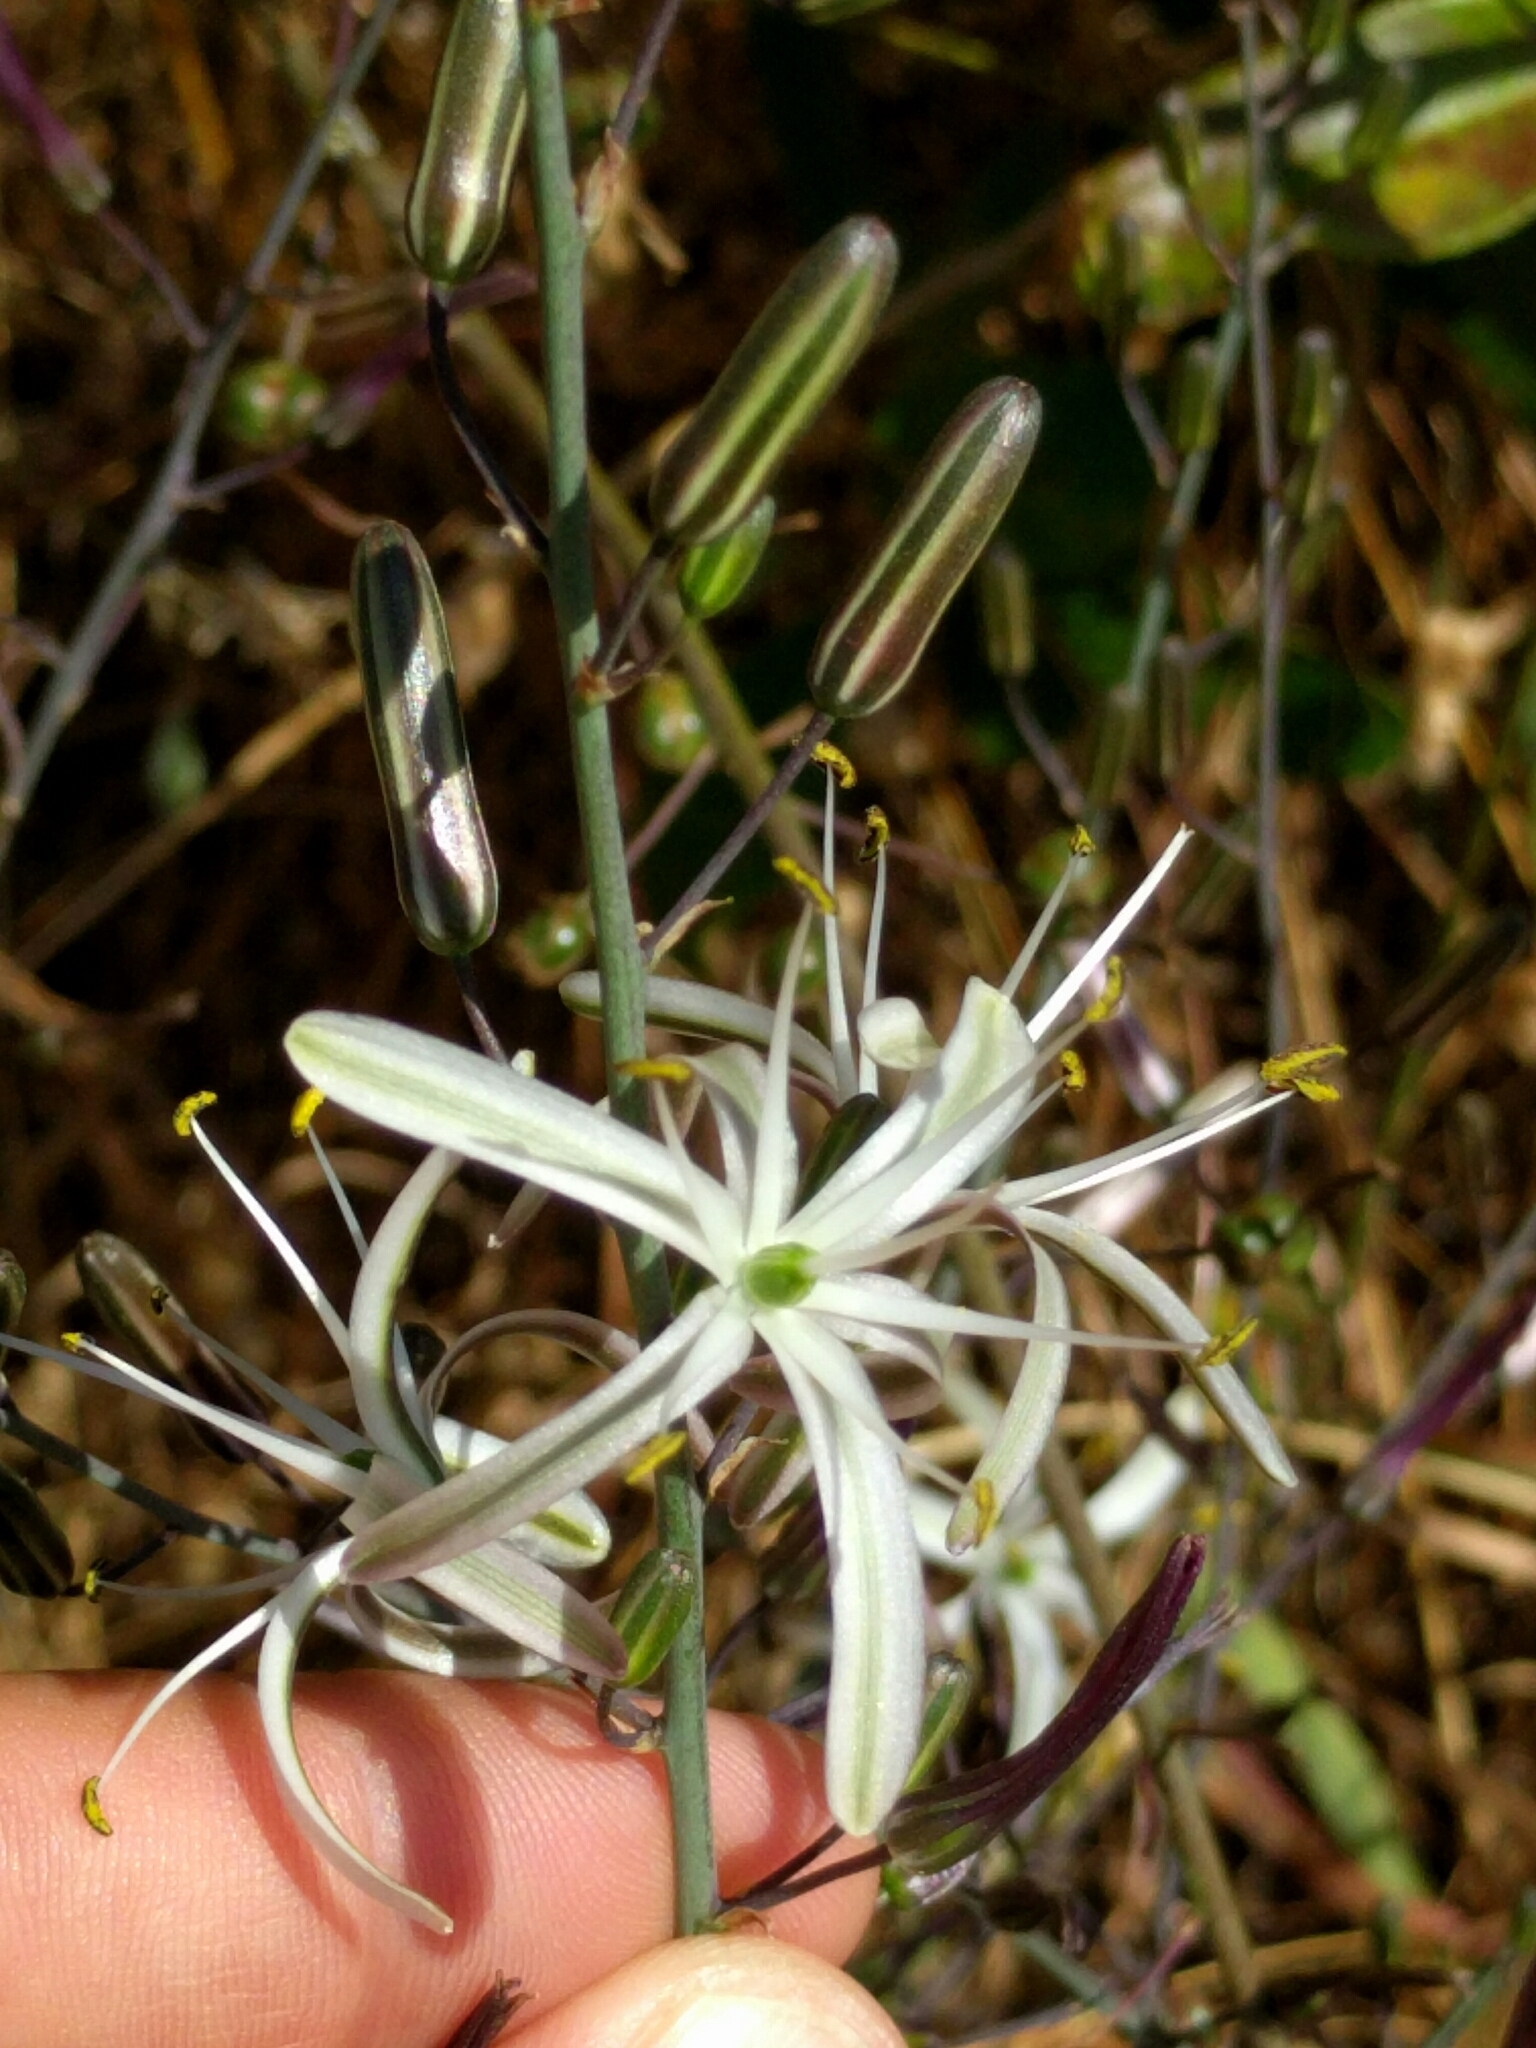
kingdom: Plantae
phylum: Tracheophyta
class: Liliopsida
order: Asparagales
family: Asparagaceae
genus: Chlorogalum
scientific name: Chlorogalum pomeridianum
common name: Amole
